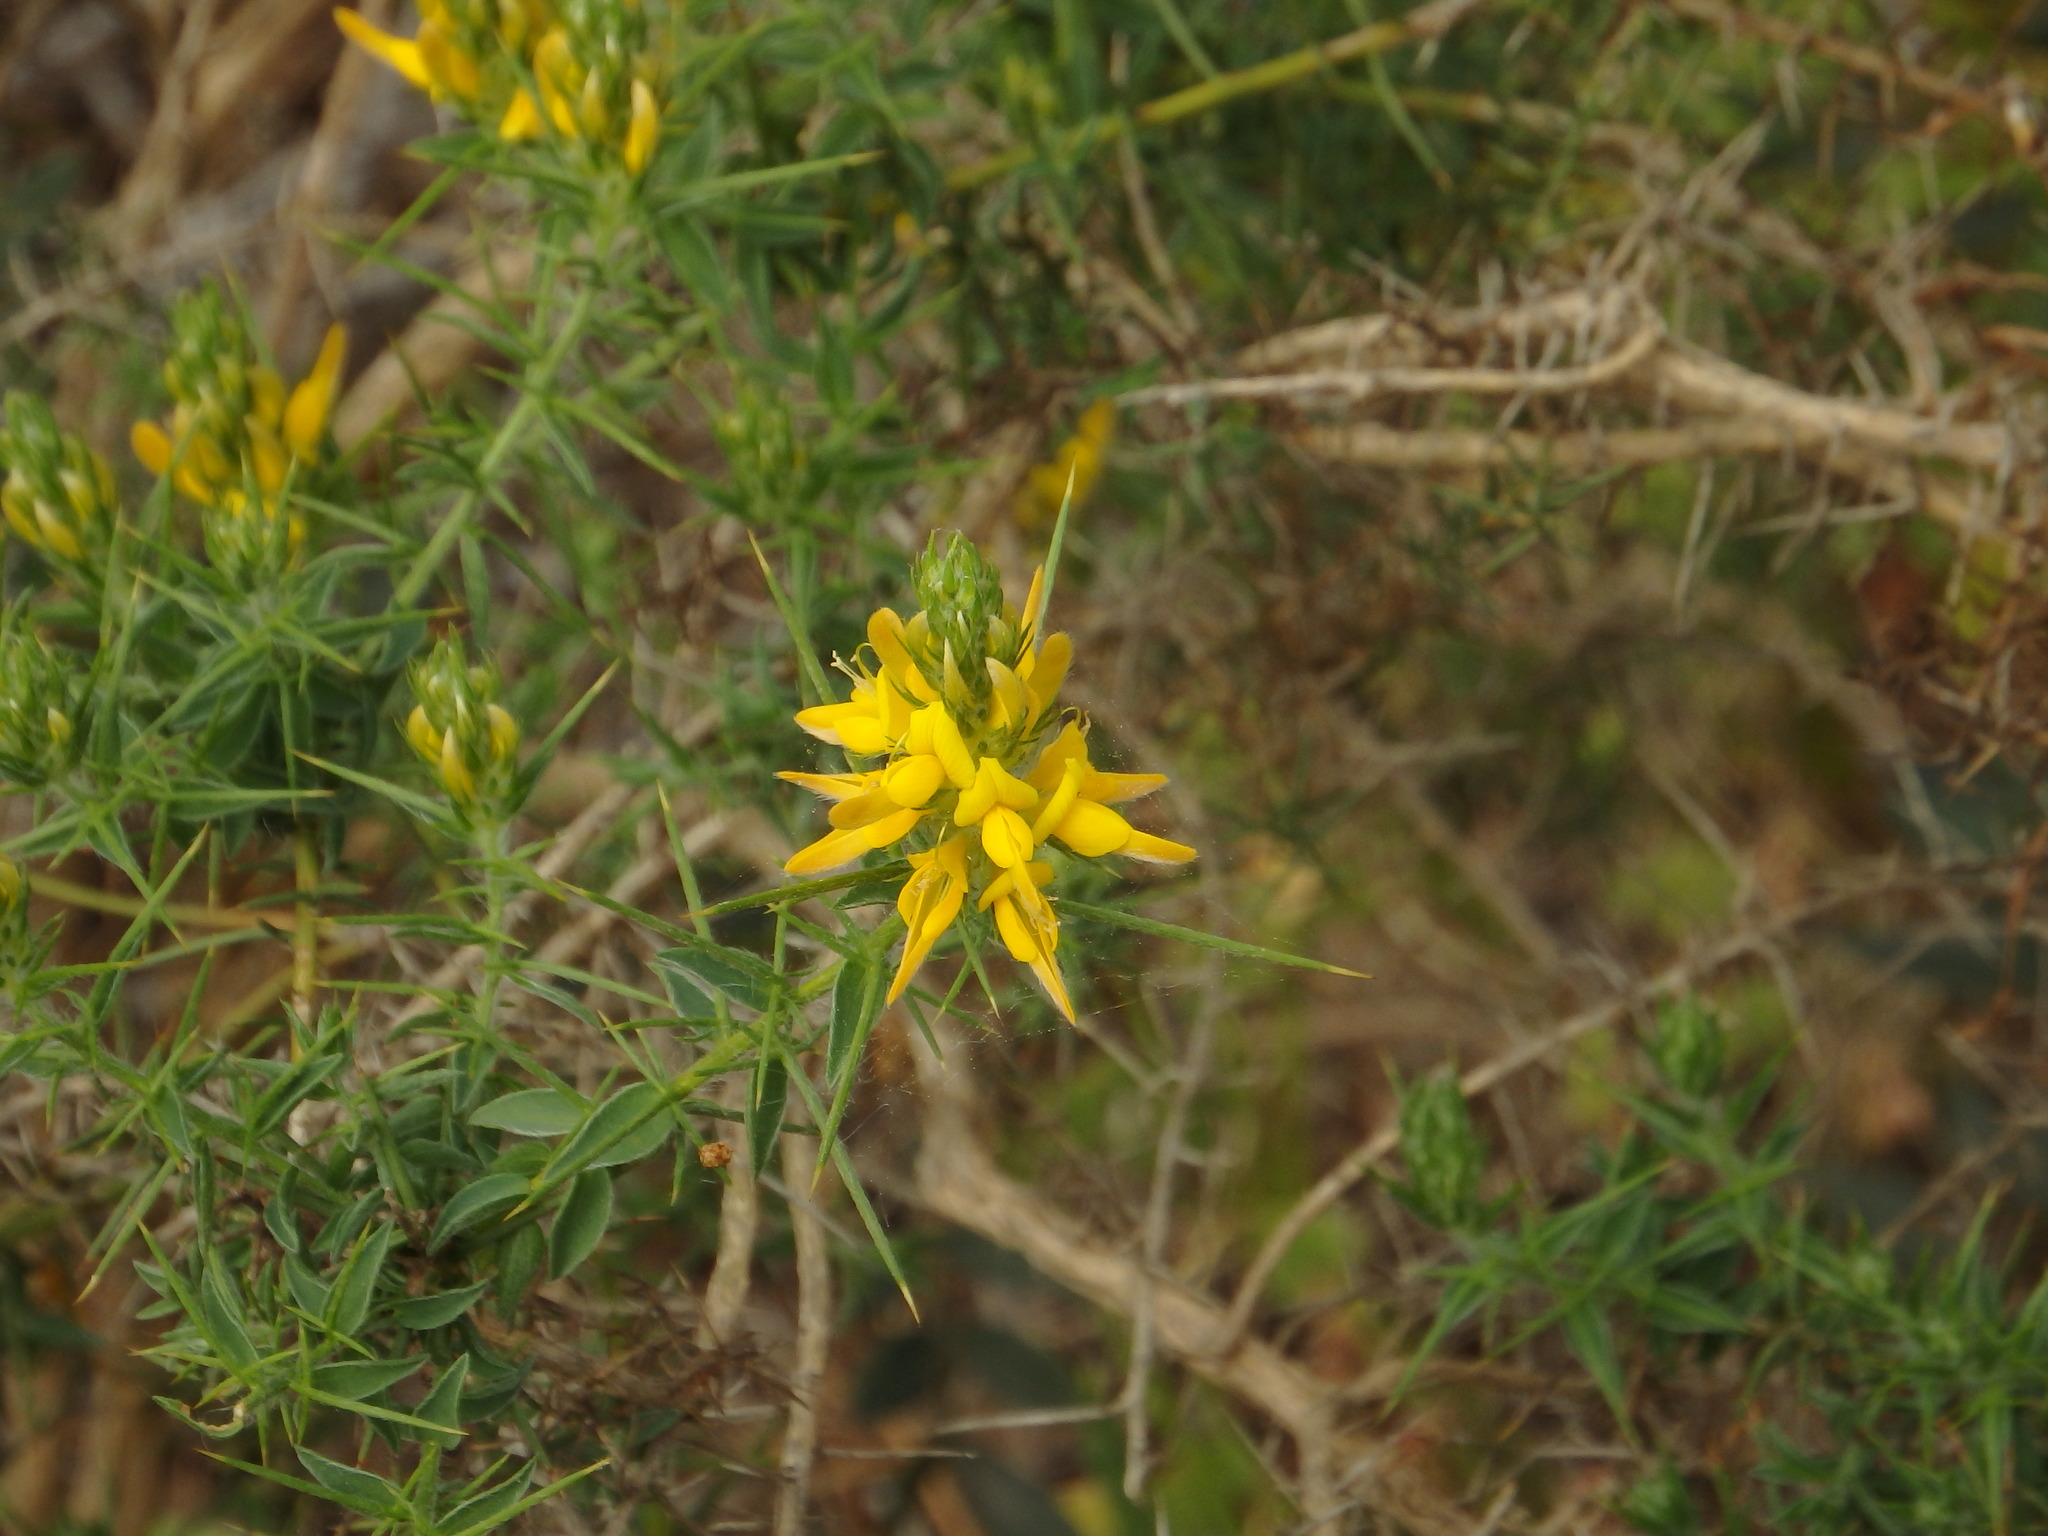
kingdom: Plantae
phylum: Tracheophyta
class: Magnoliopsida
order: Fabales
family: Fabaceae
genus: Genista
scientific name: Genista hirsuta
